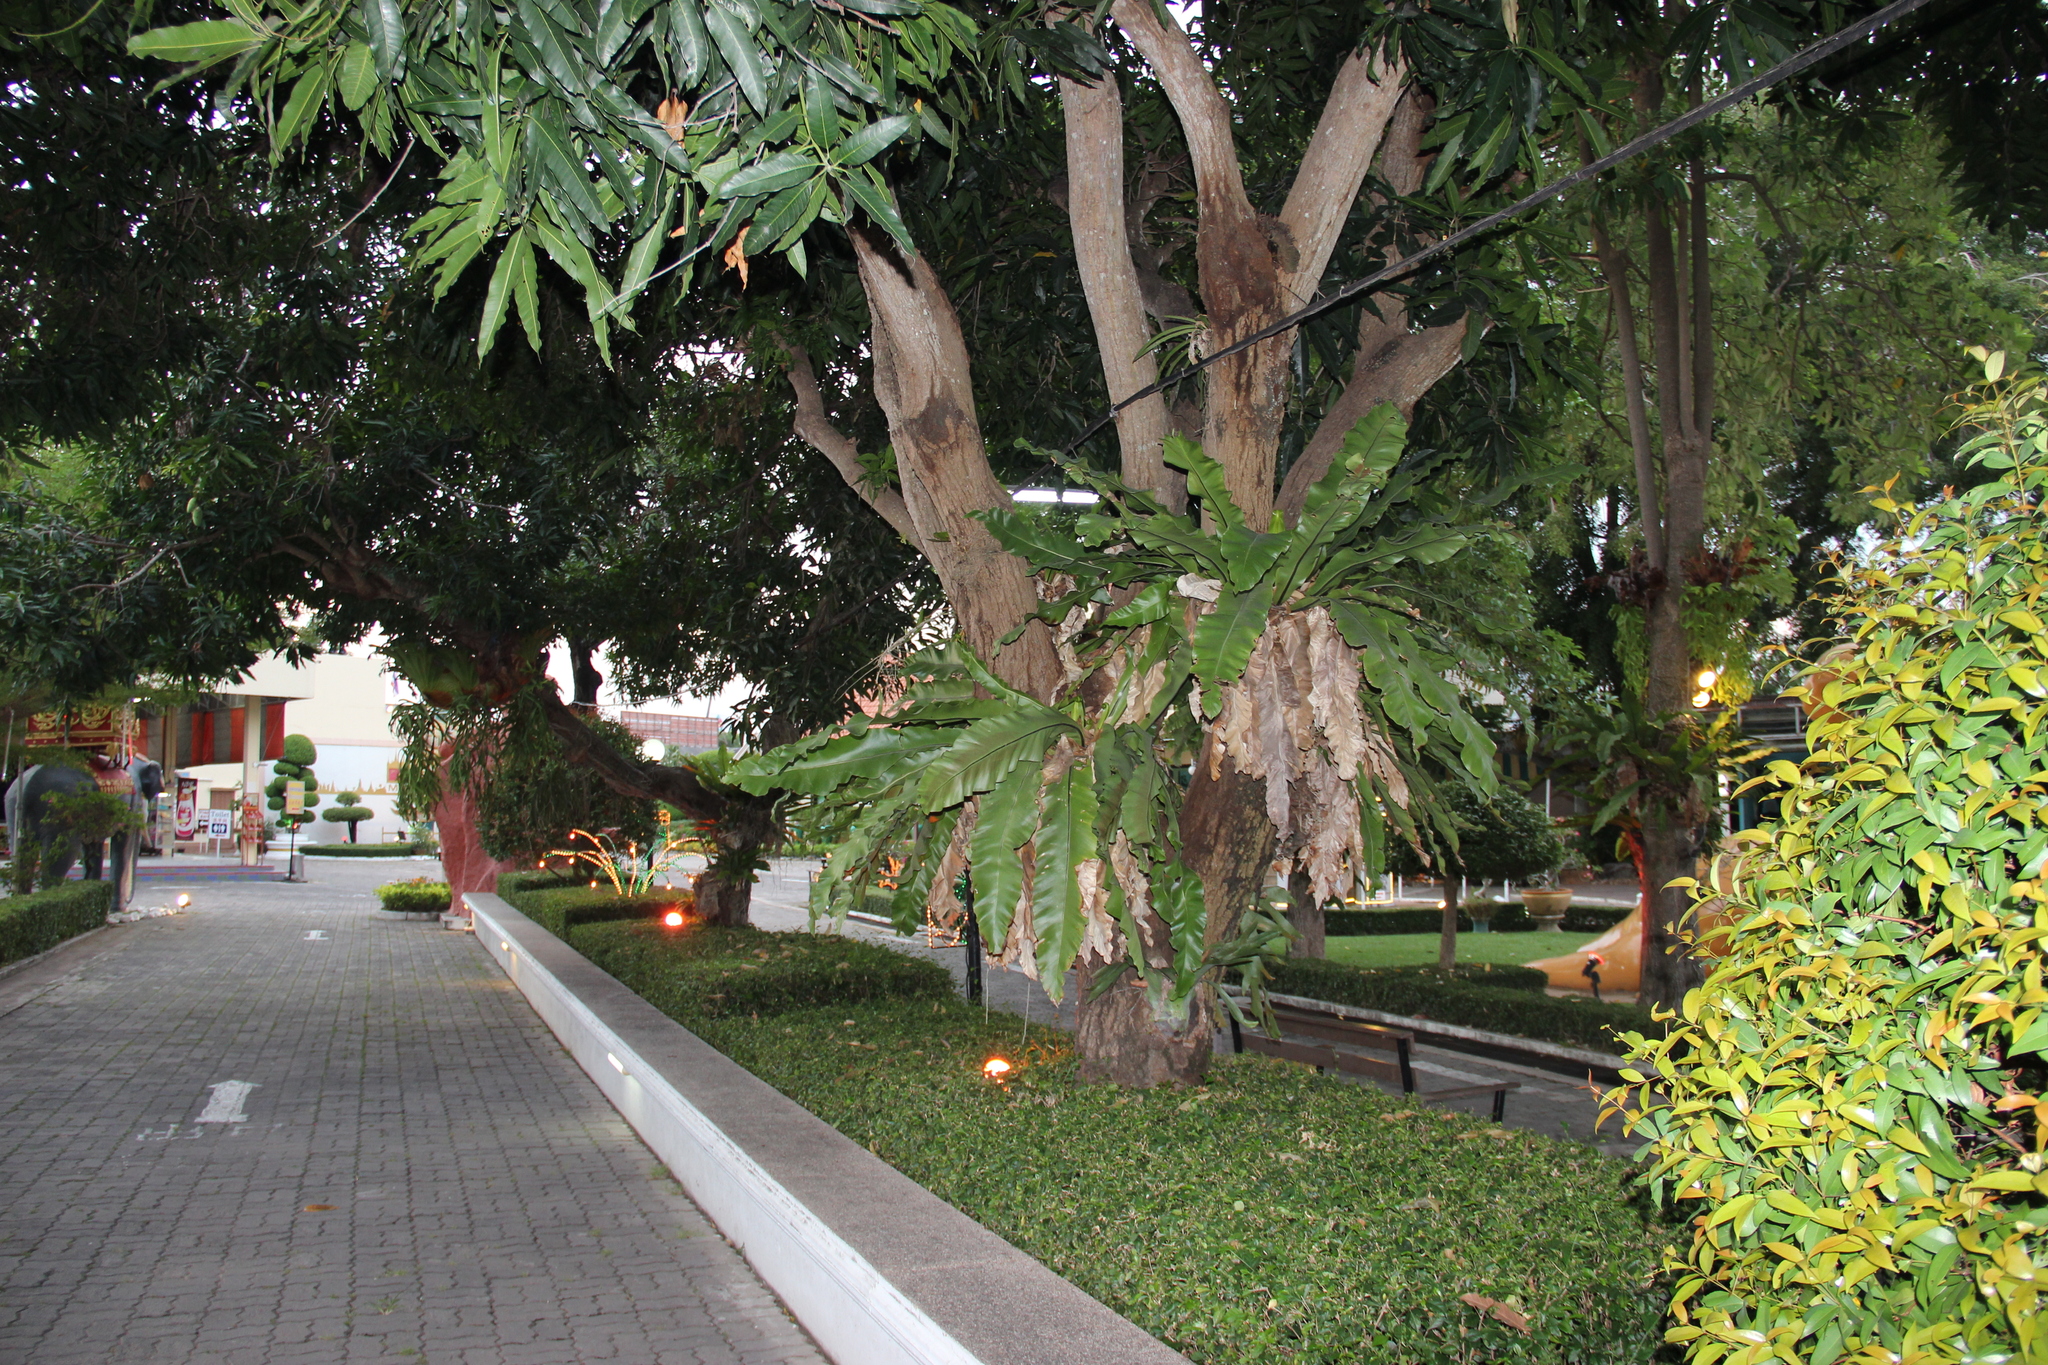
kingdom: Plantae
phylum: Tracheophyta
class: Polypodiopsida
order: Polypodiales
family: Aspleniaceae
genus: Asplenium
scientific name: Asplenium nidus
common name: Bird's-nest fern
